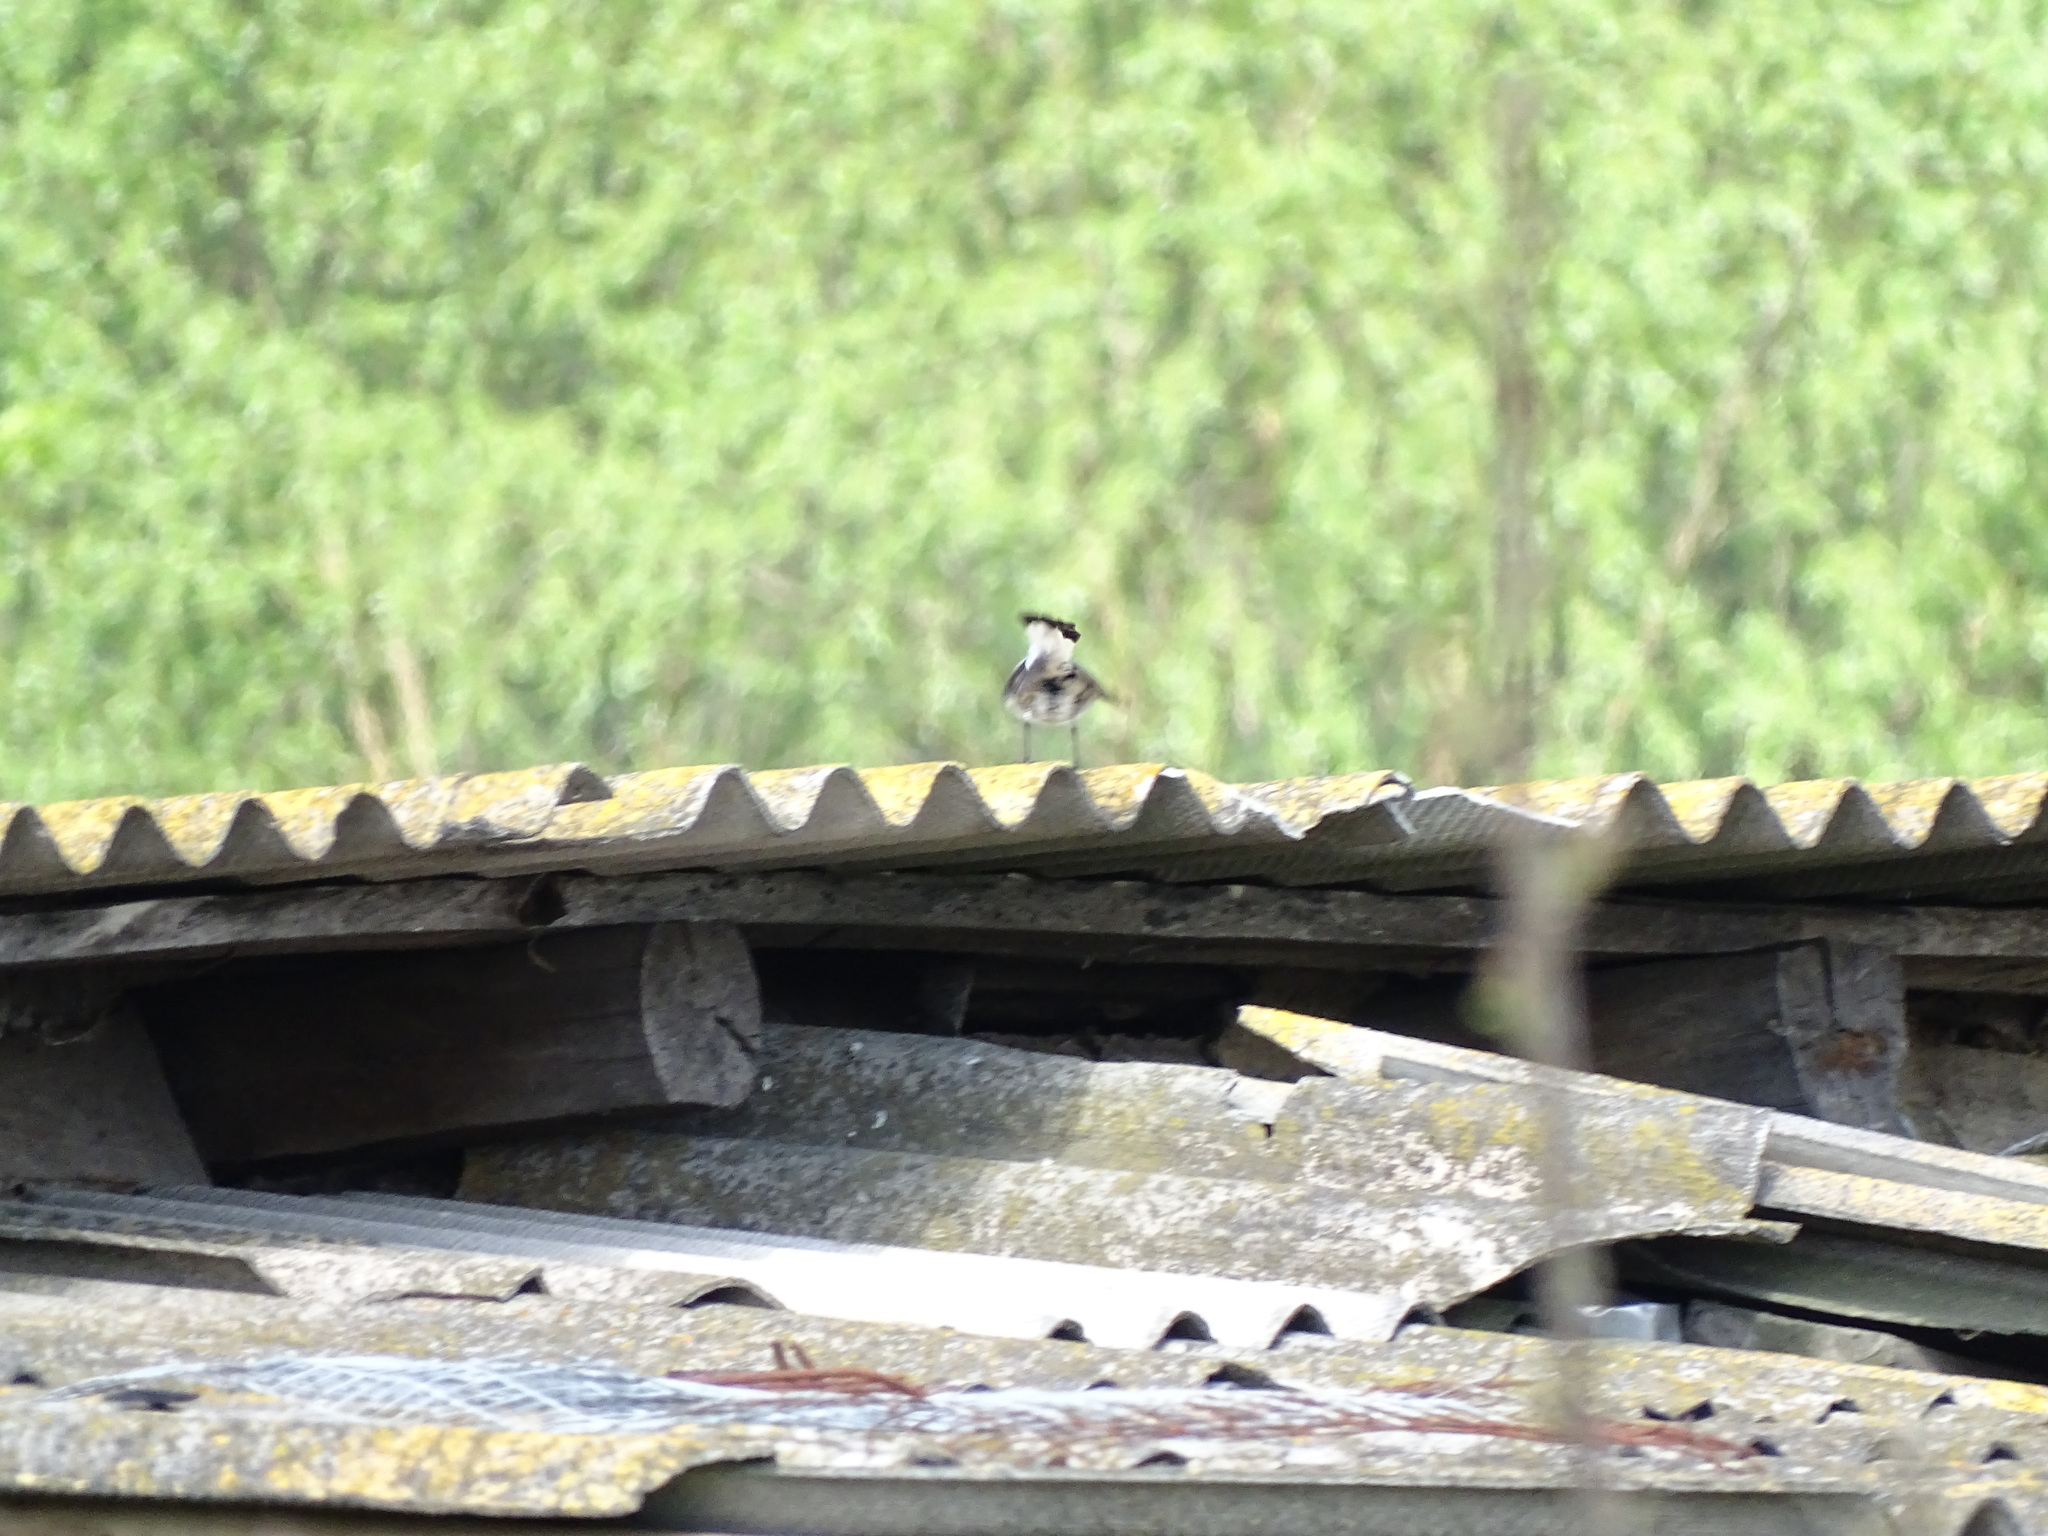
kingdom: Animalia
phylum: Chordata
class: Aves
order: Passeriformes
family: Muscicapidae
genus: Oenanthe
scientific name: Oenanthe oenanthe
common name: Northern wheatear
